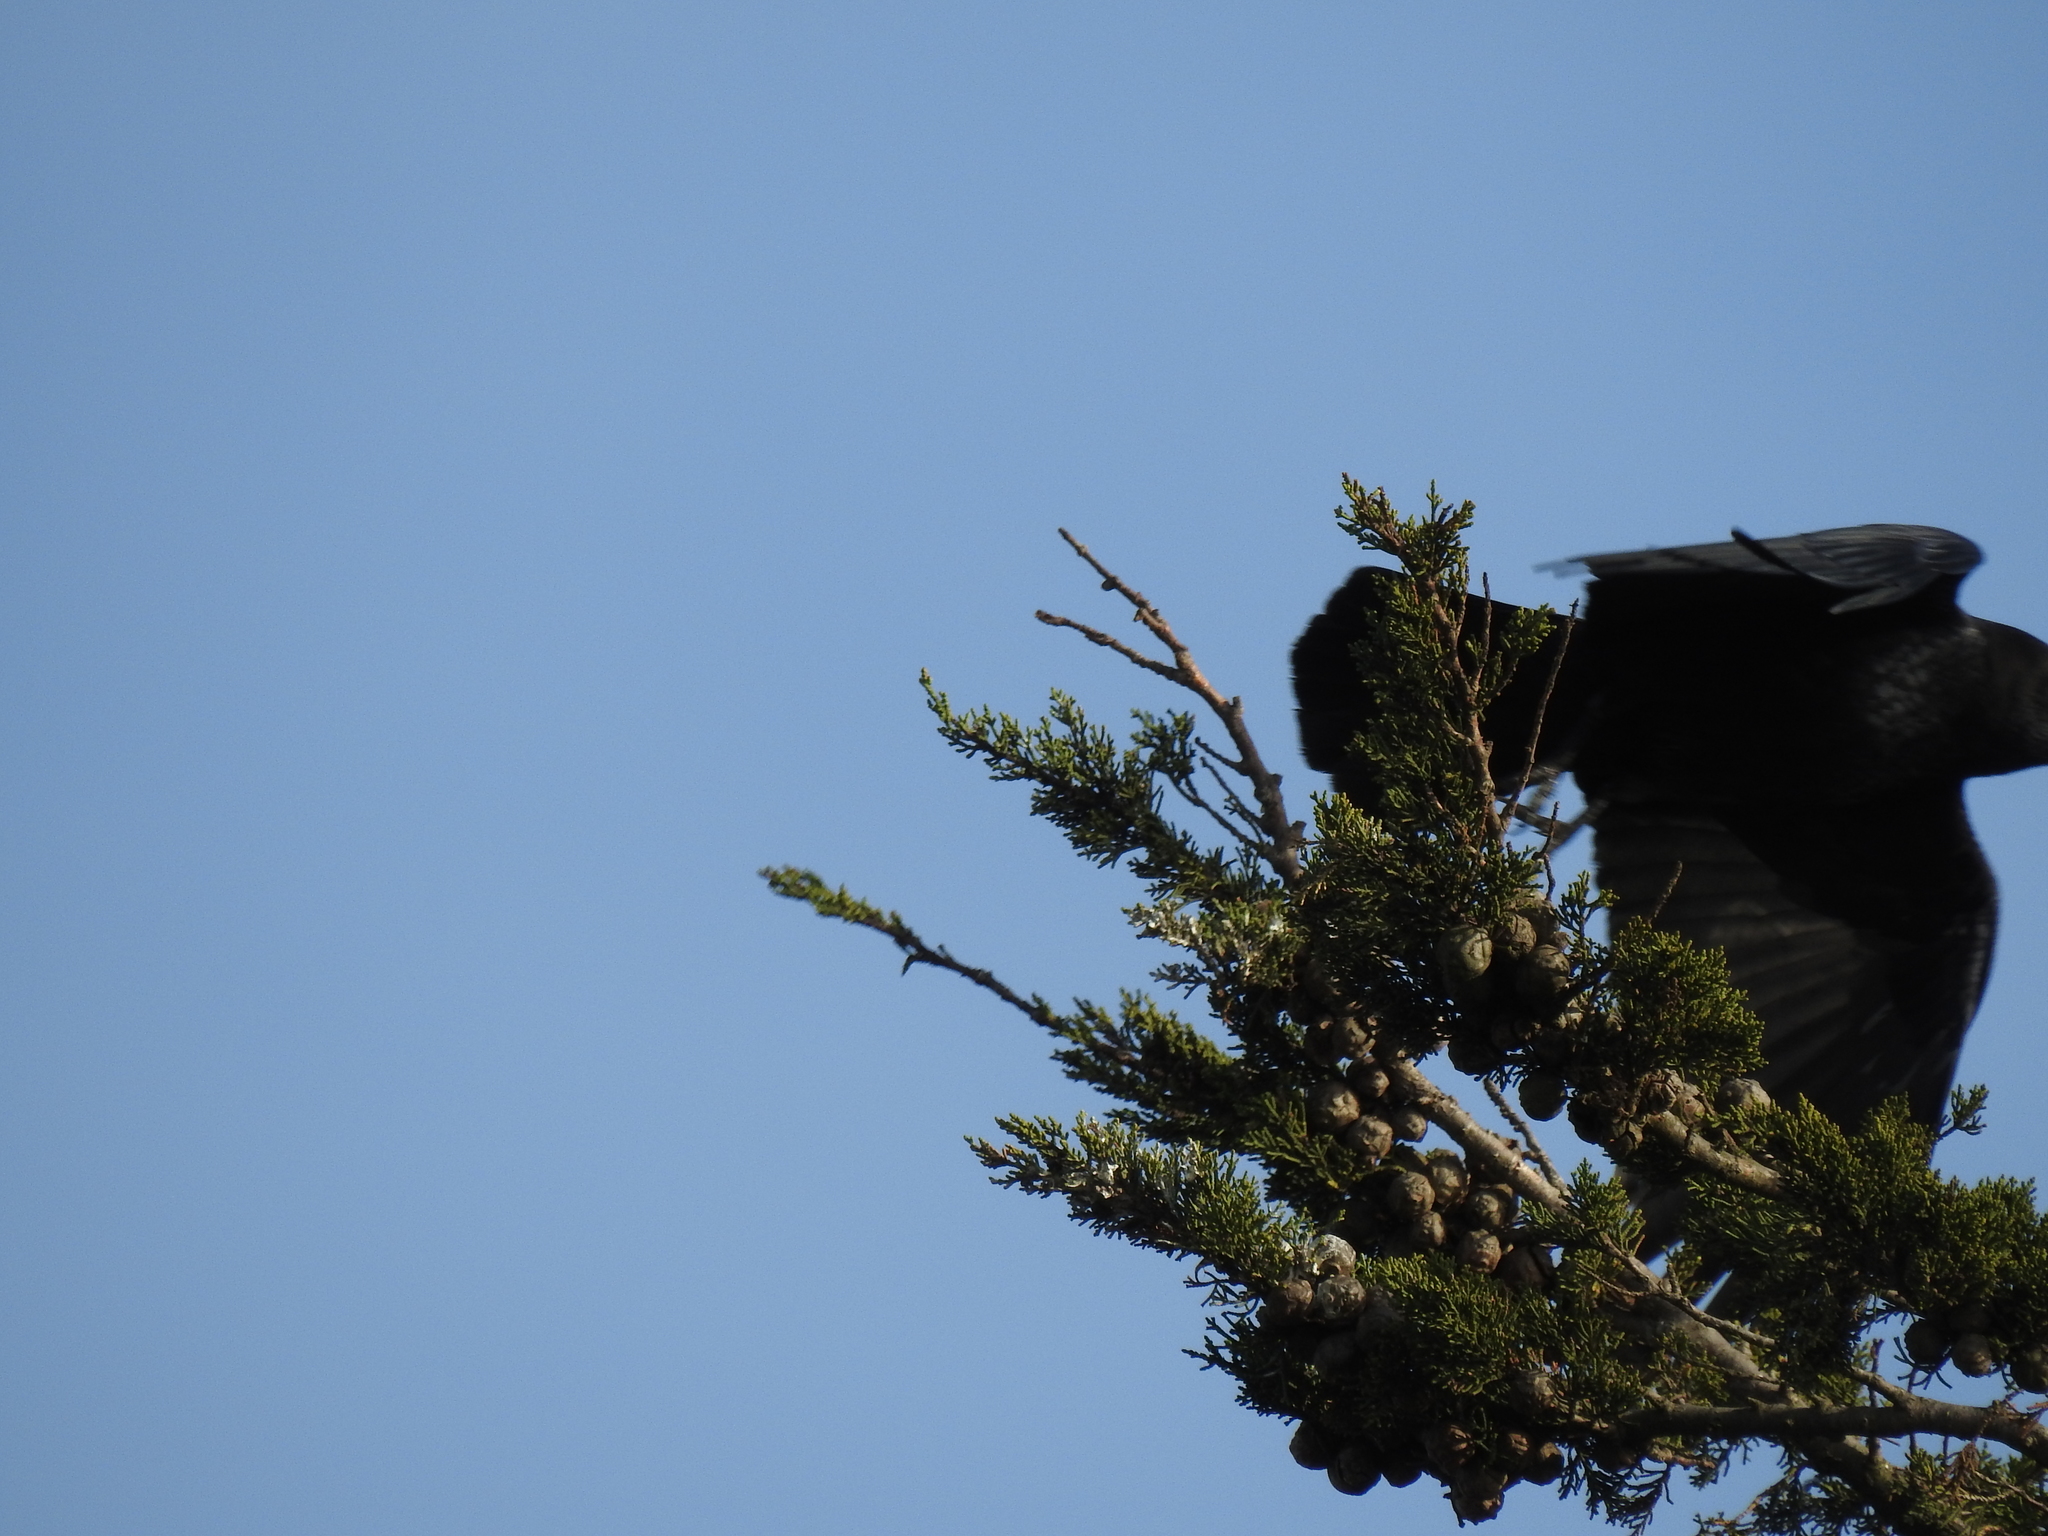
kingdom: Animalia
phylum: Chordata
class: Aves
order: Passeriformes
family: Corvidae
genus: Corvus
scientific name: Corvus brachyrhynchos
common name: American crow
